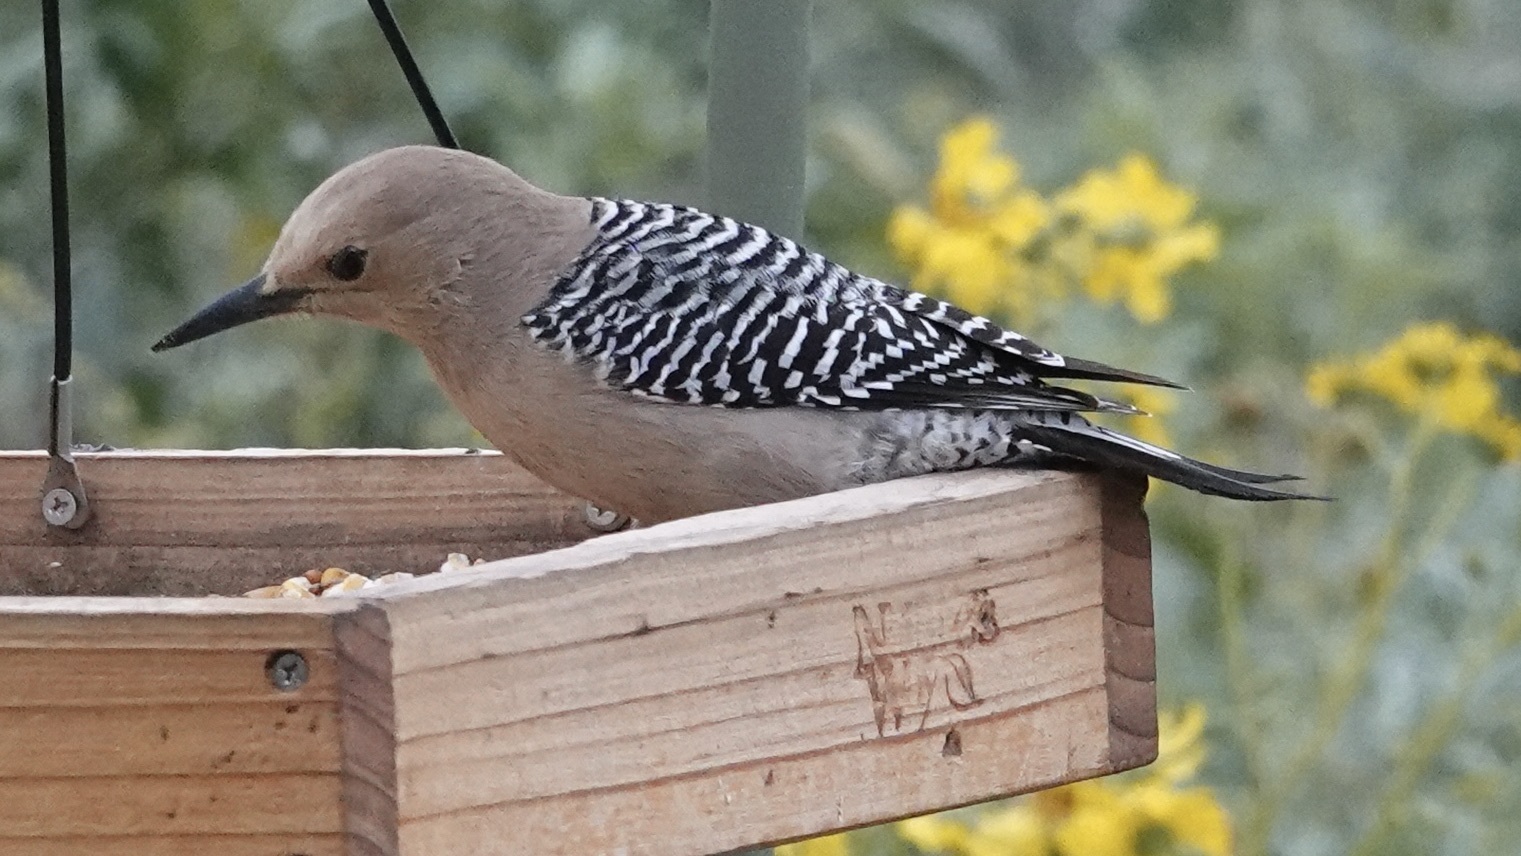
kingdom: Animalia
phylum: Chordata
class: Aves
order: Piciformes
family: Picidae
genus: Melanerpes
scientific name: Melanerpes uropygialis
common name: Gila woodpecker
